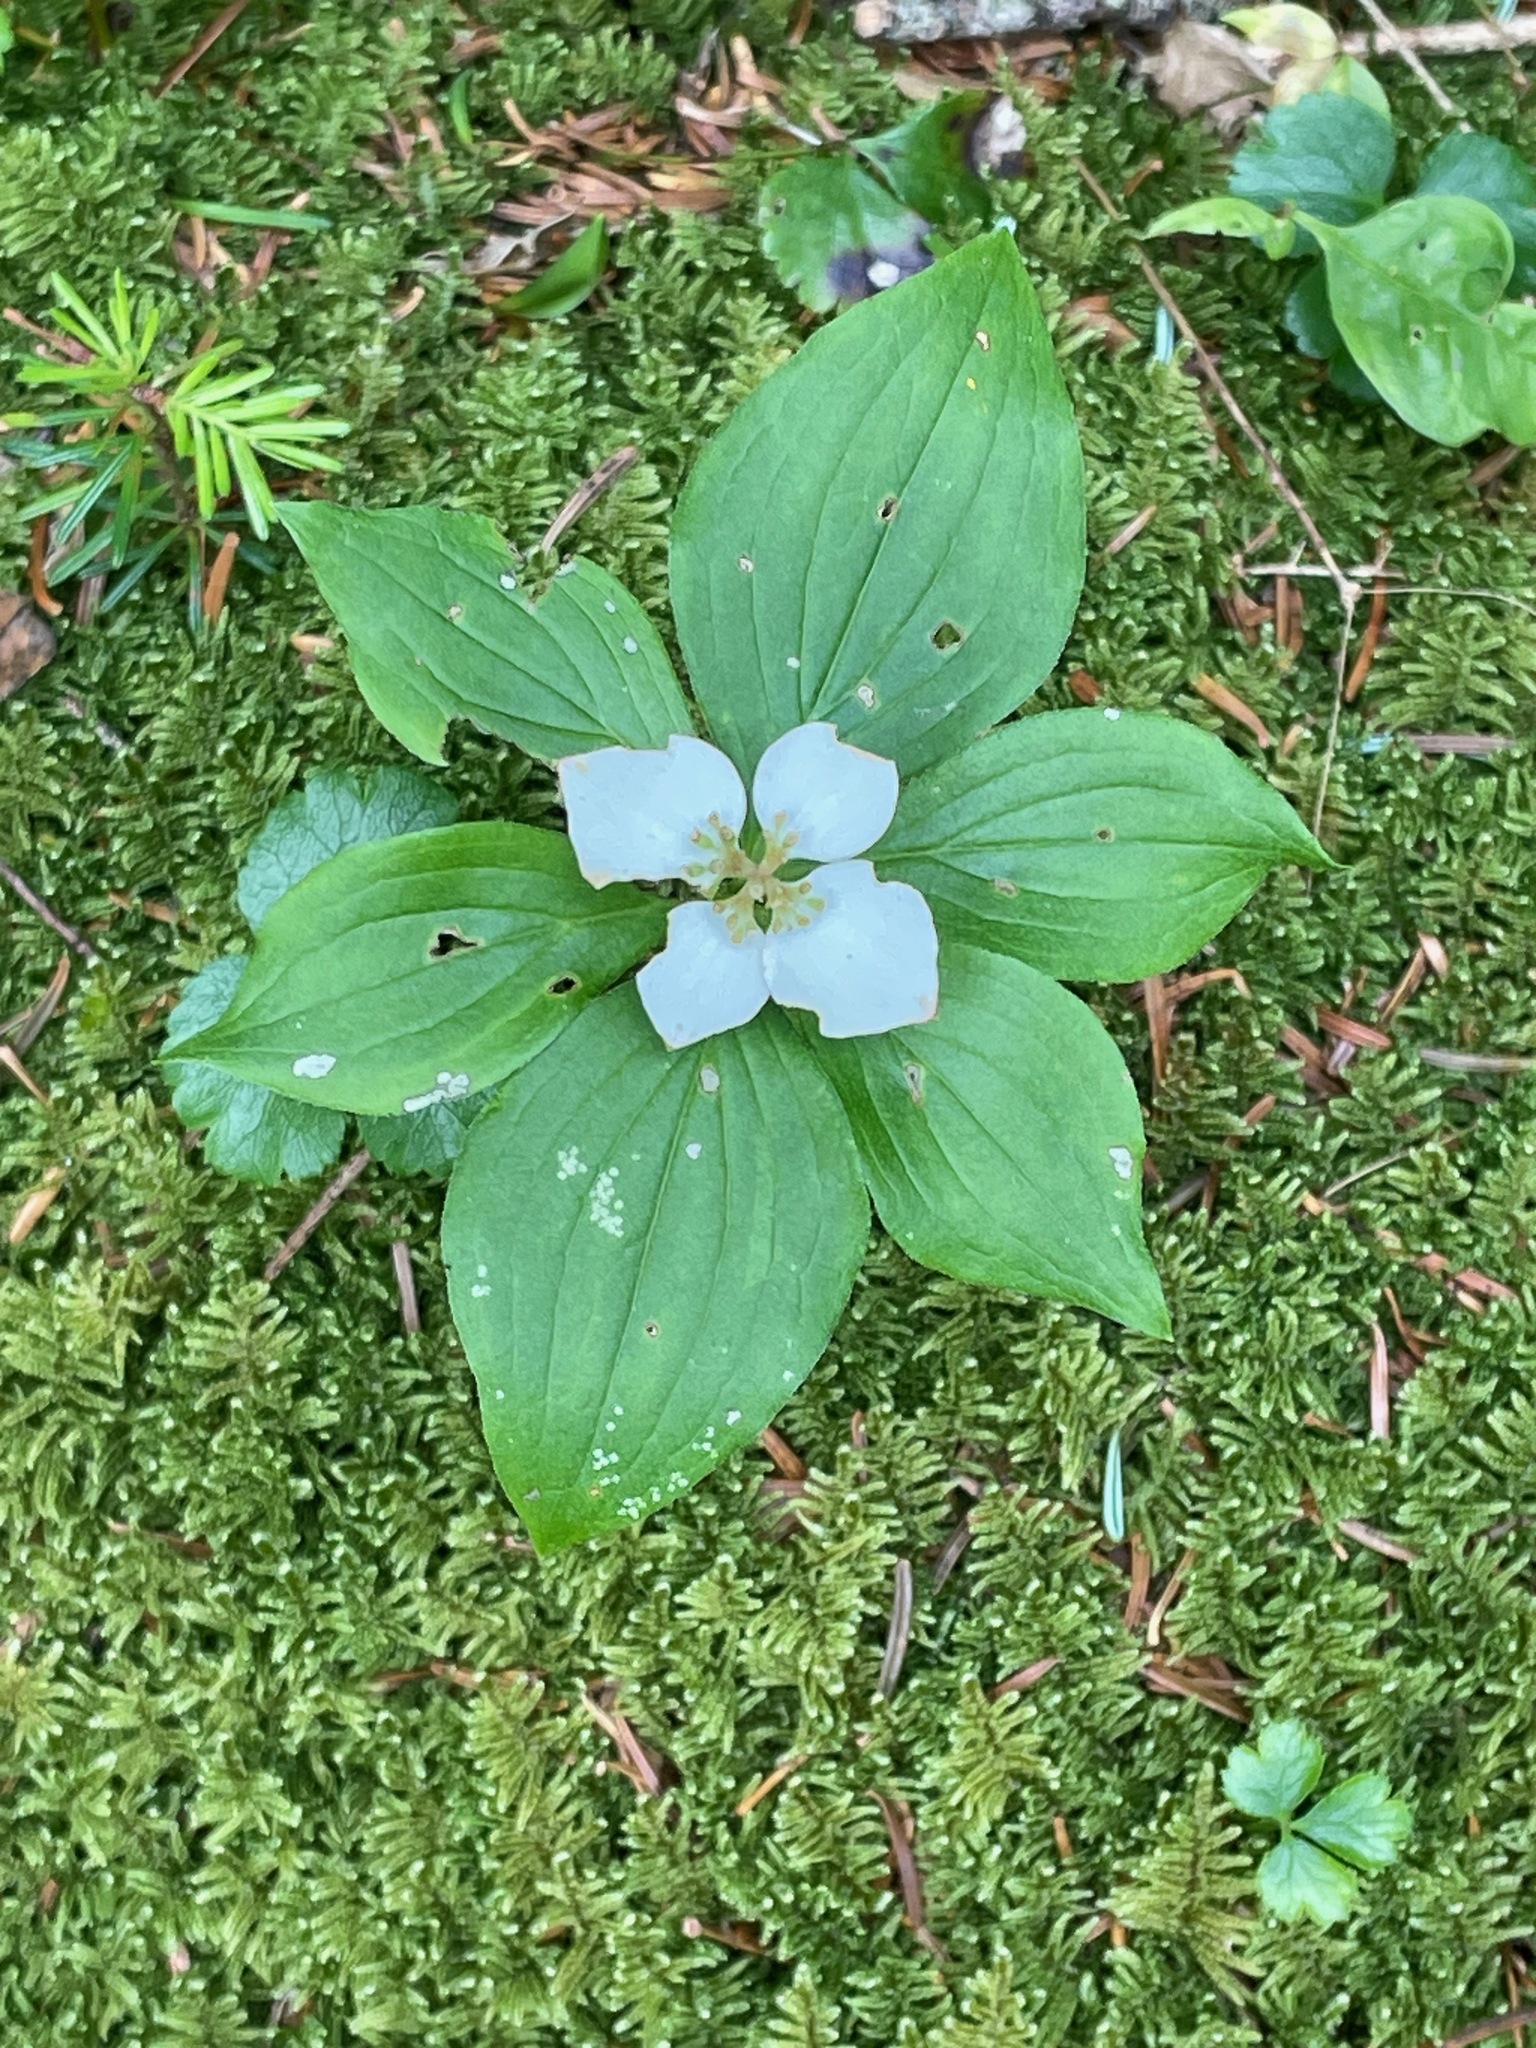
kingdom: Plantae
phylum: Tracheophyta
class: Magnoliopsida
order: Cornales
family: Cornaceae
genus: Cornus
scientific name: Cornus canadensis
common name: Creeping dogwood
